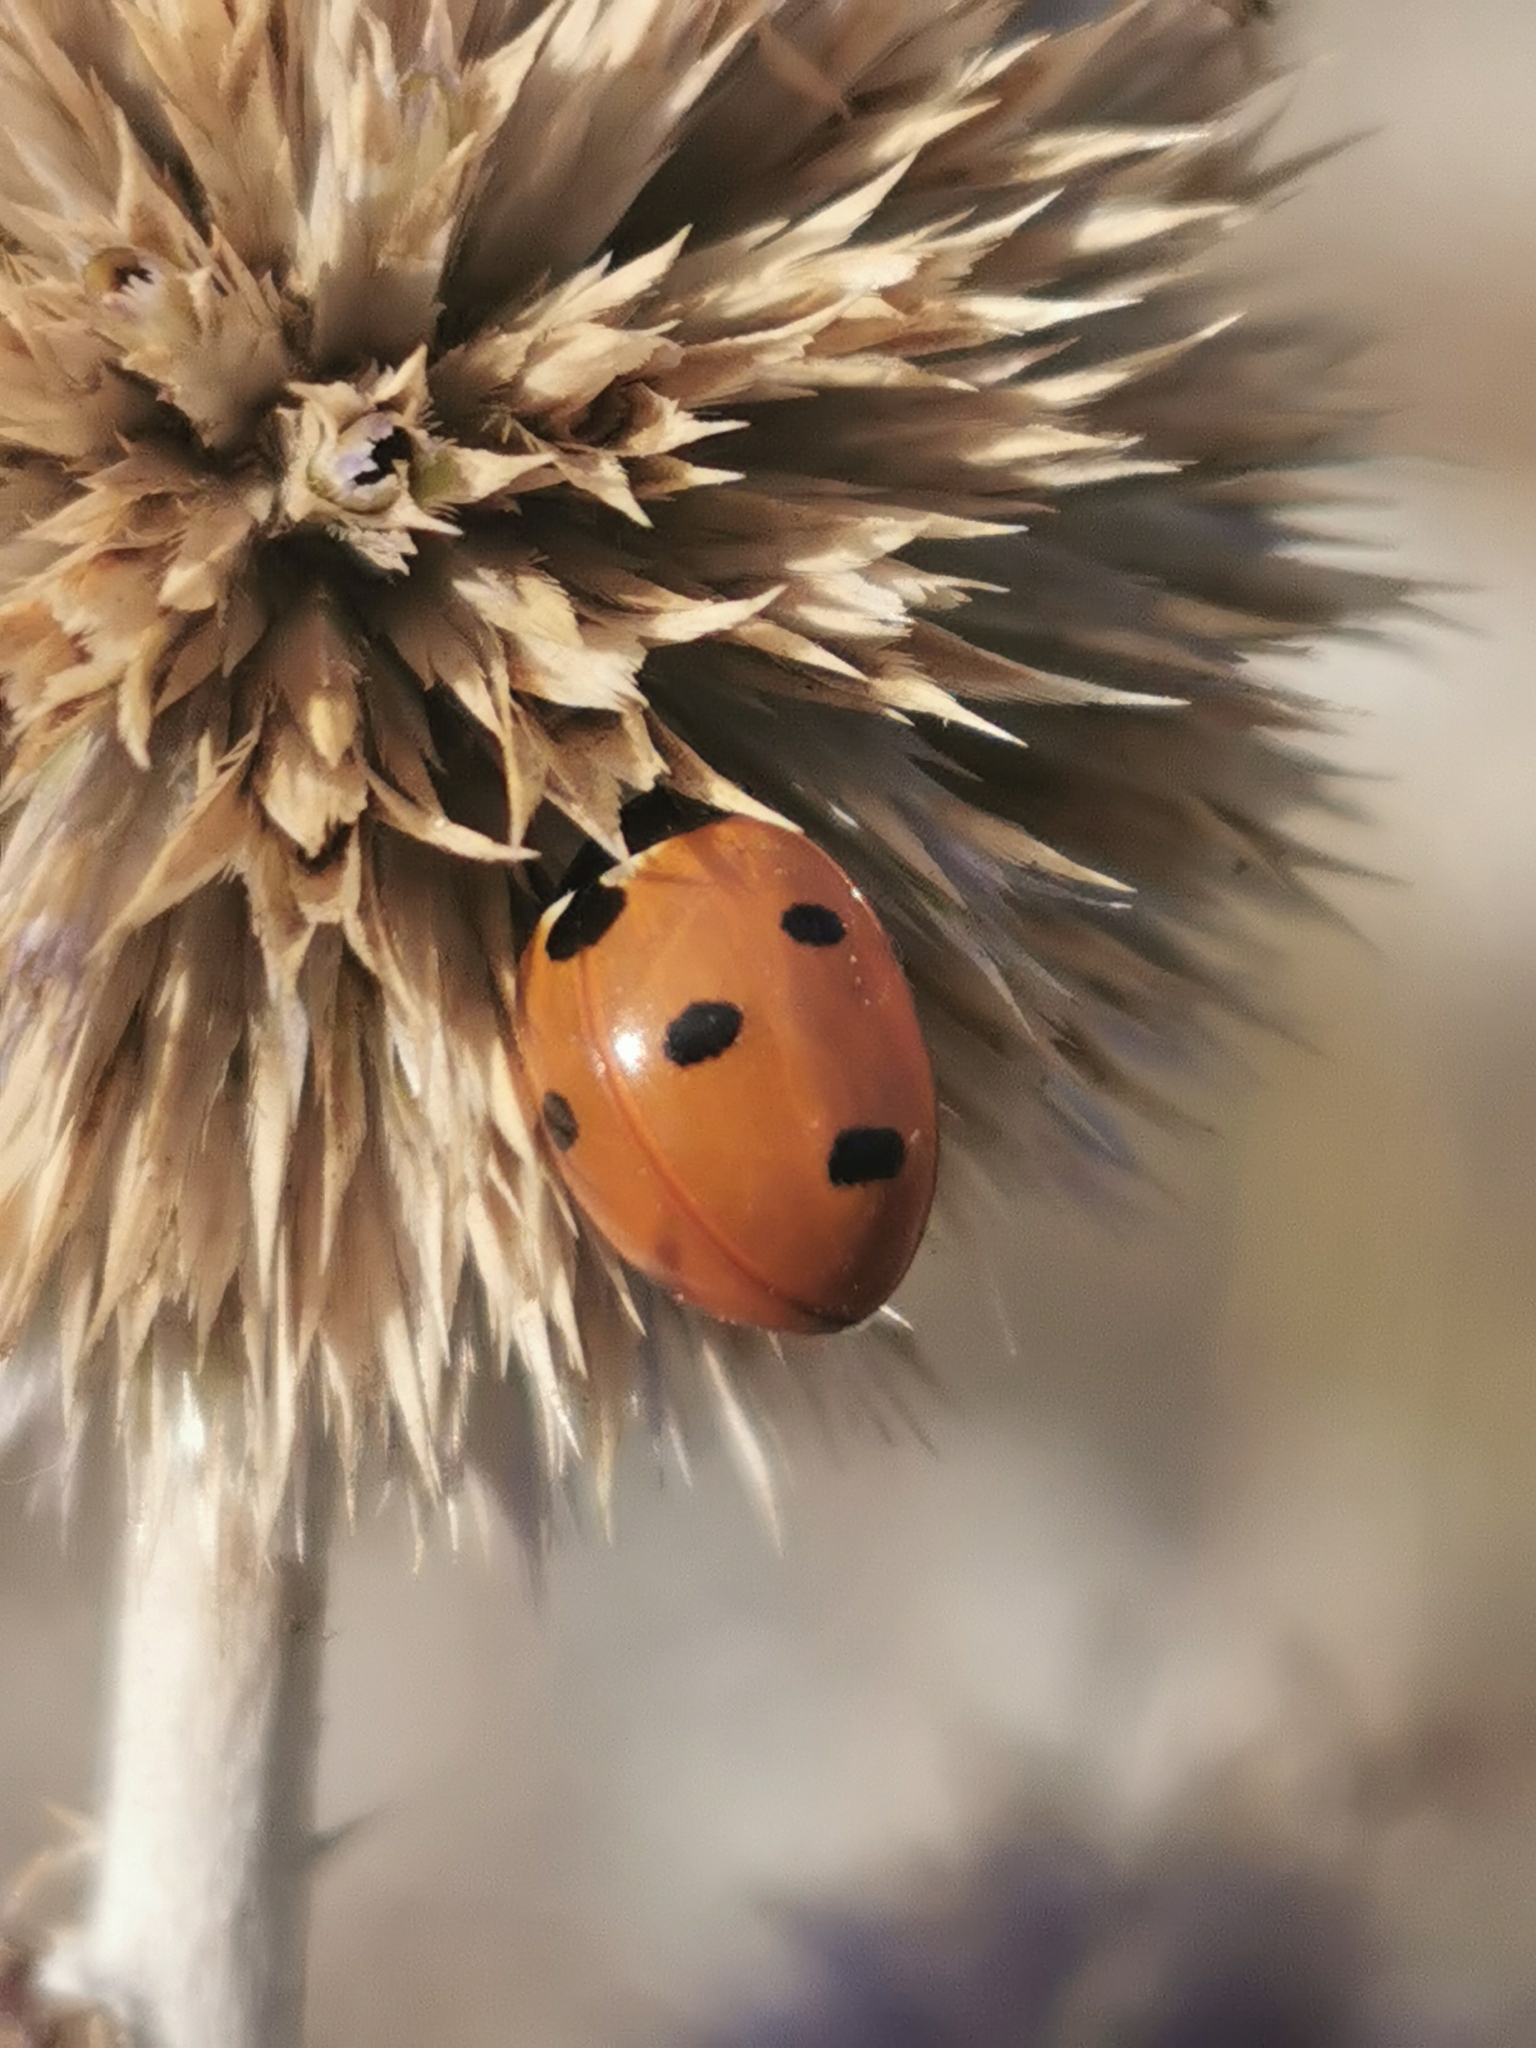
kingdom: Animalia
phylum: Arthropoda
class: Insecta
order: Coleoptera
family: Coccinellidae
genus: Coccinella
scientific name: Coccinella septempunctata
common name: Sevenspotted lady beetle
